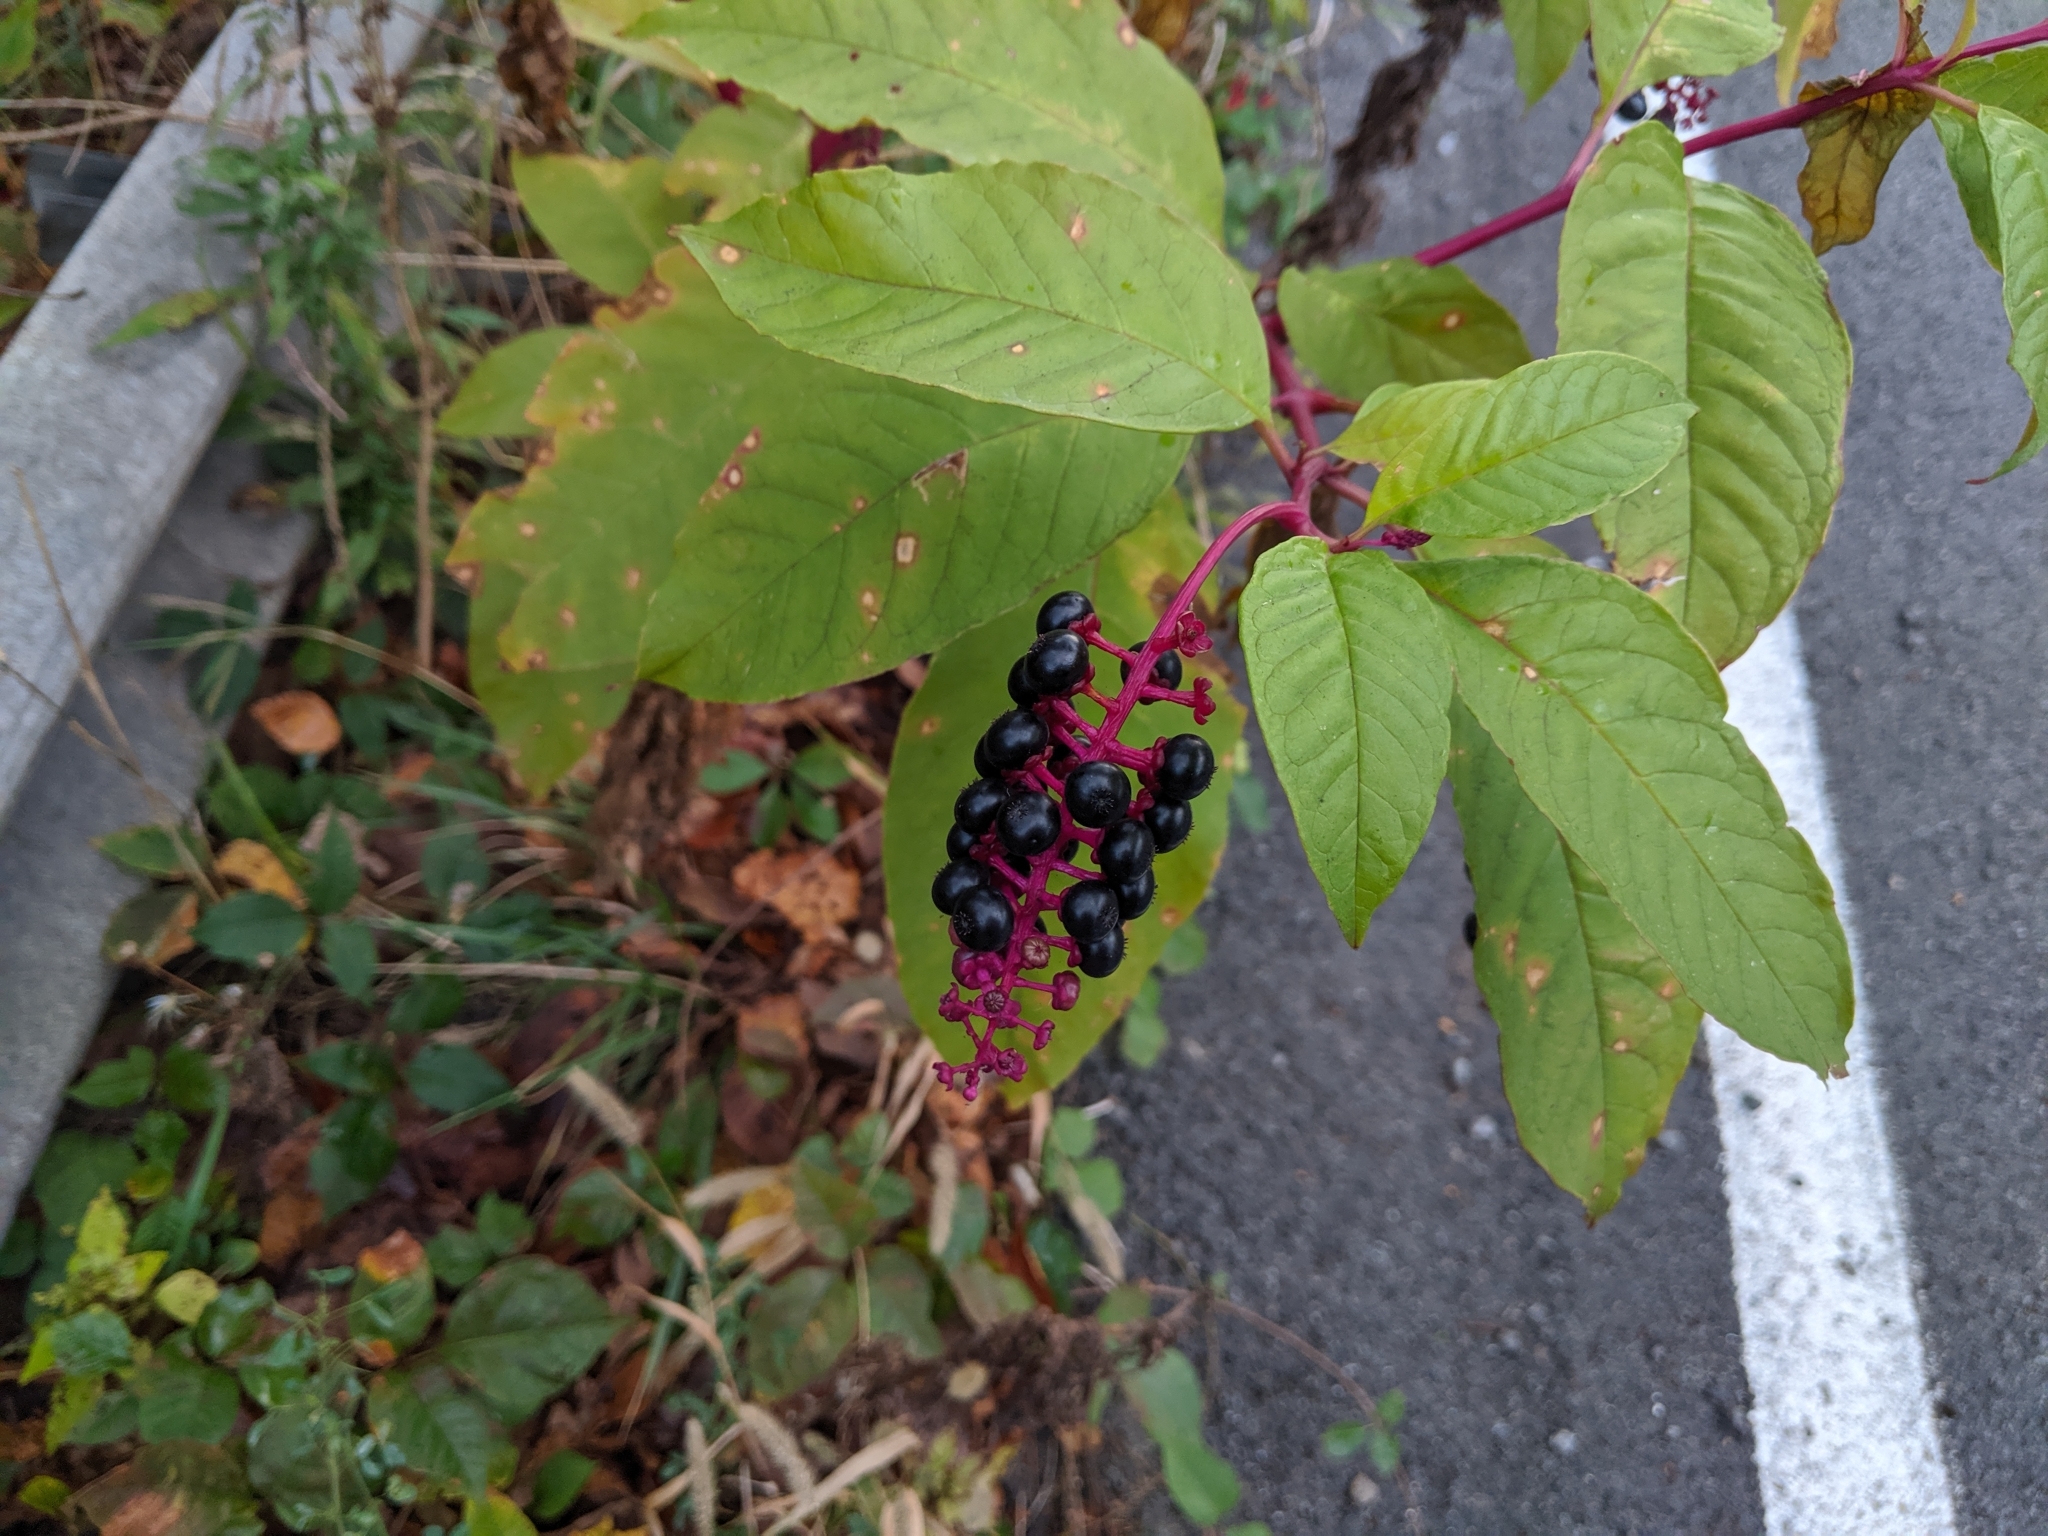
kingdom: Plantae
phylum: Tracheophyta
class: Magnoliopsida
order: Caryophyllales
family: Phytolaccaceae
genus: Phytolacca
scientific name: Phytolacca americana
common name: American pokeweed
